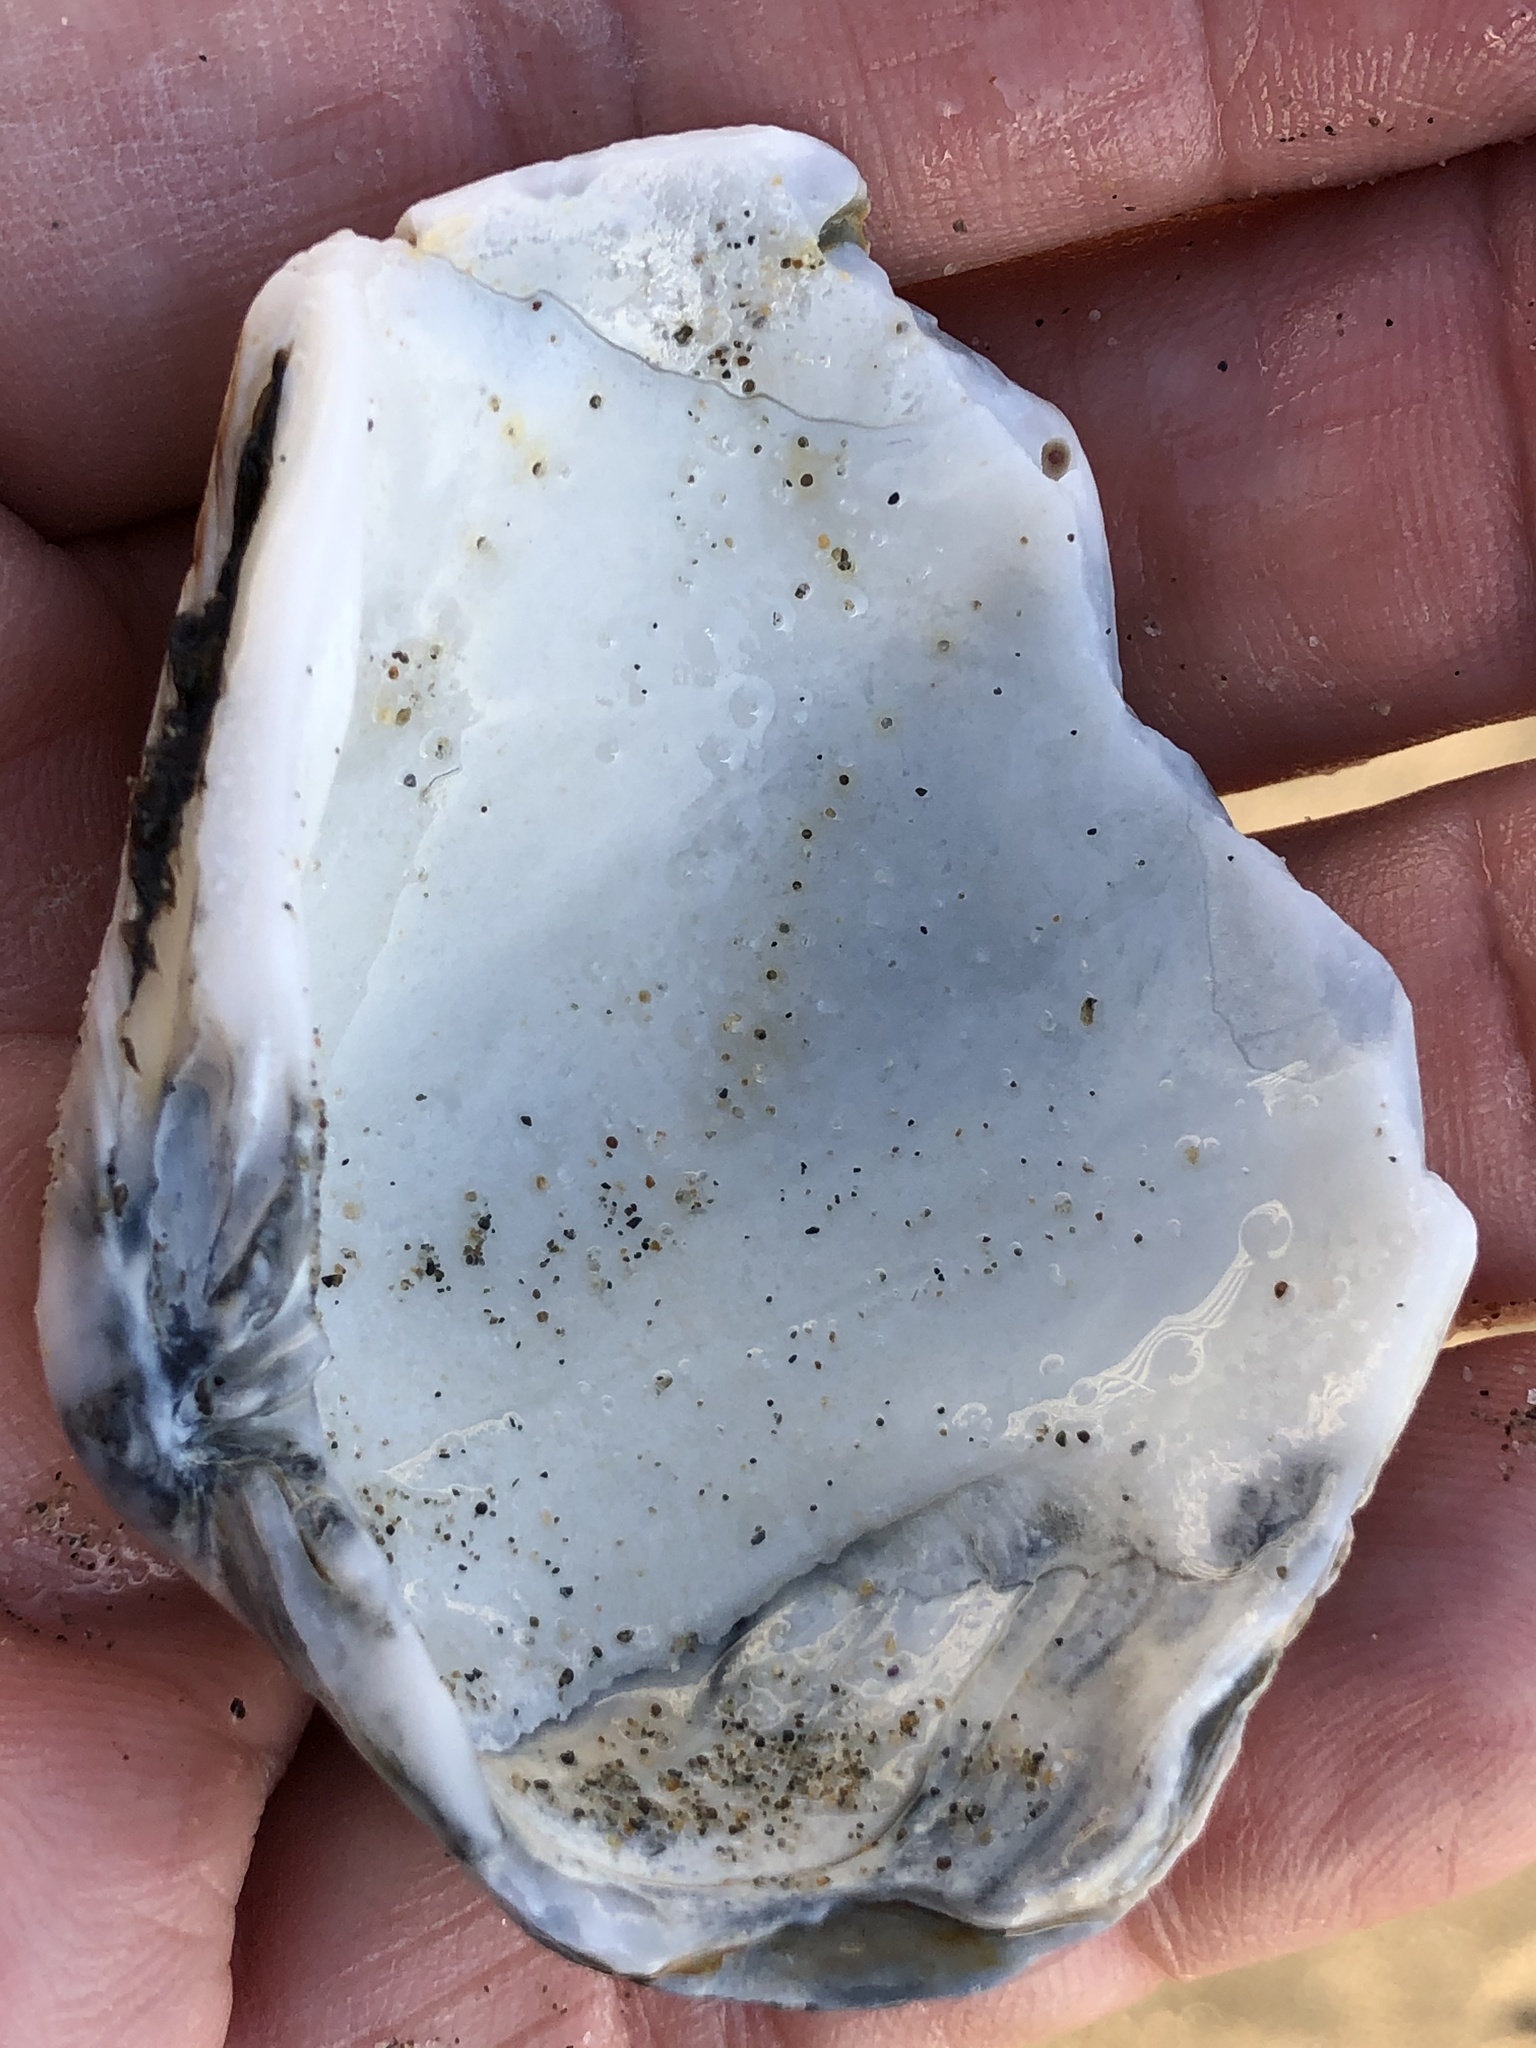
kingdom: Animalia
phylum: Mollusca
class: Bivalvia
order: Venerida
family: Veneridae
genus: Saxidomus
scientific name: Saxidomus nuttalli
